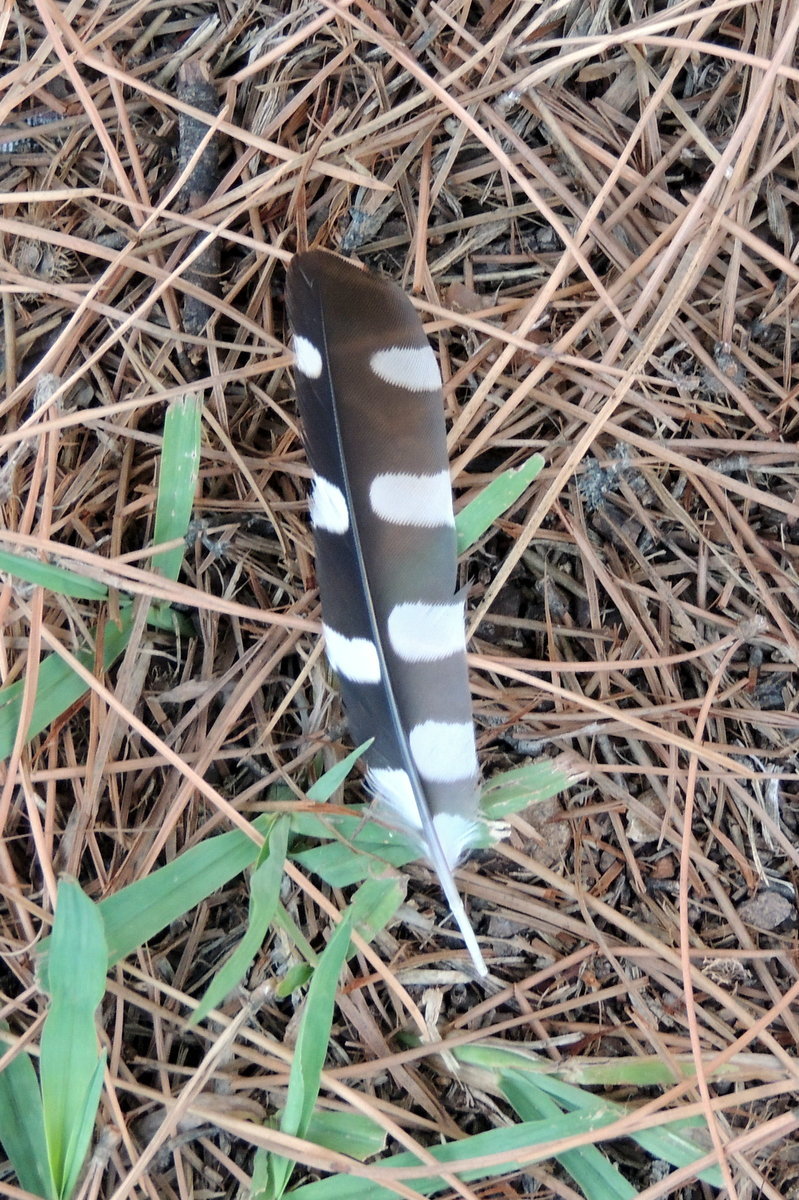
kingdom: Animalia
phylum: Chordata
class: Aves
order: Piciformes
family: Picidae
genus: Dendrocopos
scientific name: Dendrocopos syriacus
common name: Syrian woodpecker
